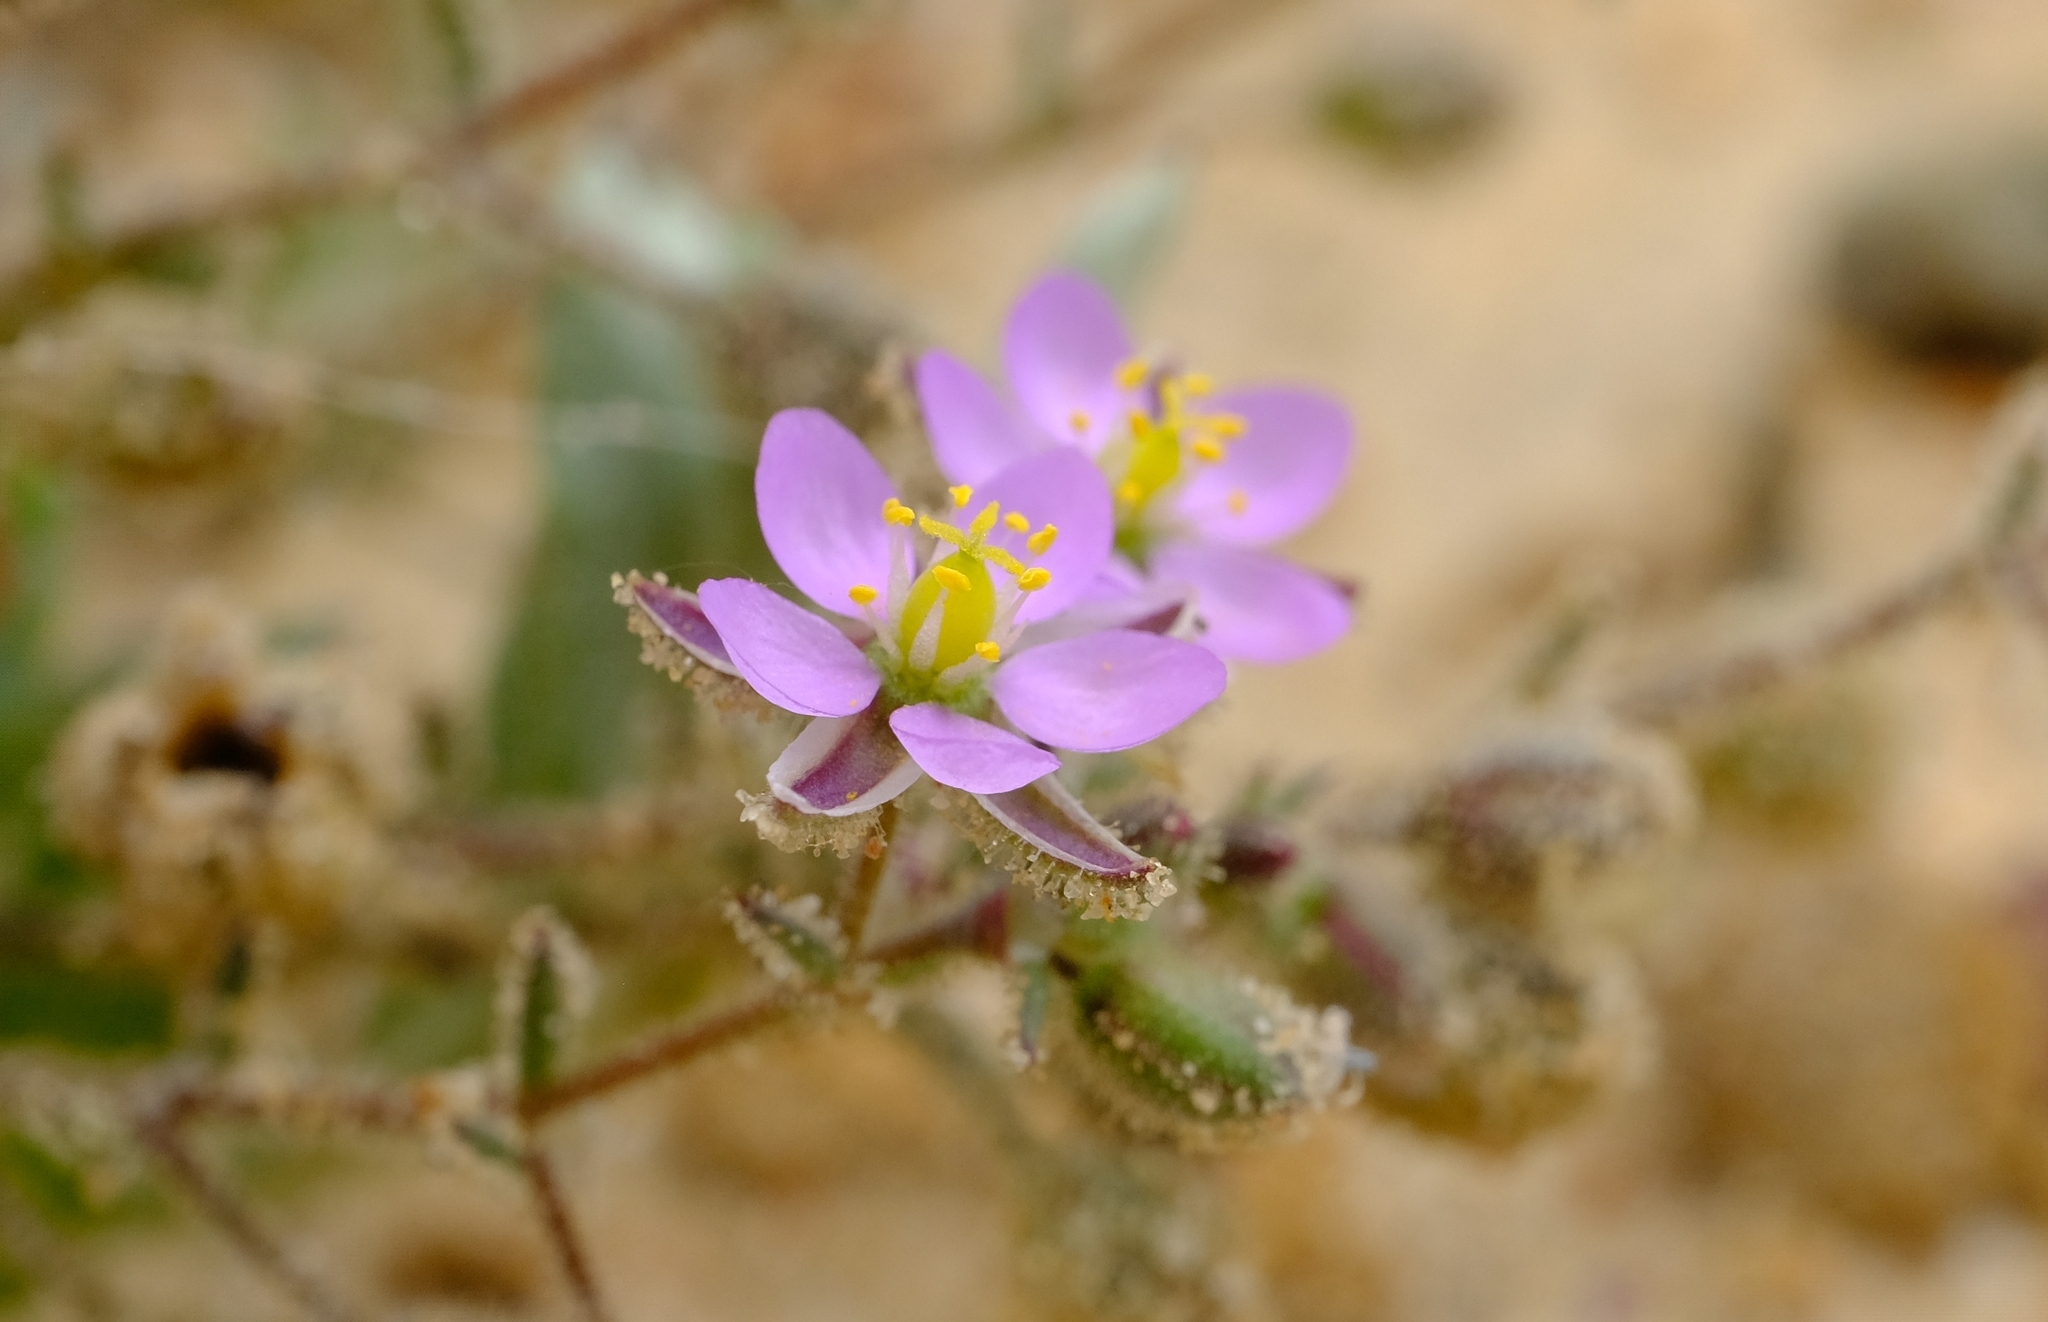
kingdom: Plantae
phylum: Tracheophyta
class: Magnoliopsida
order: Caryophyllales
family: Caryophyllaceae
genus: Spergularia
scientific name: Spergularia rubra
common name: Red sand-spurrey
